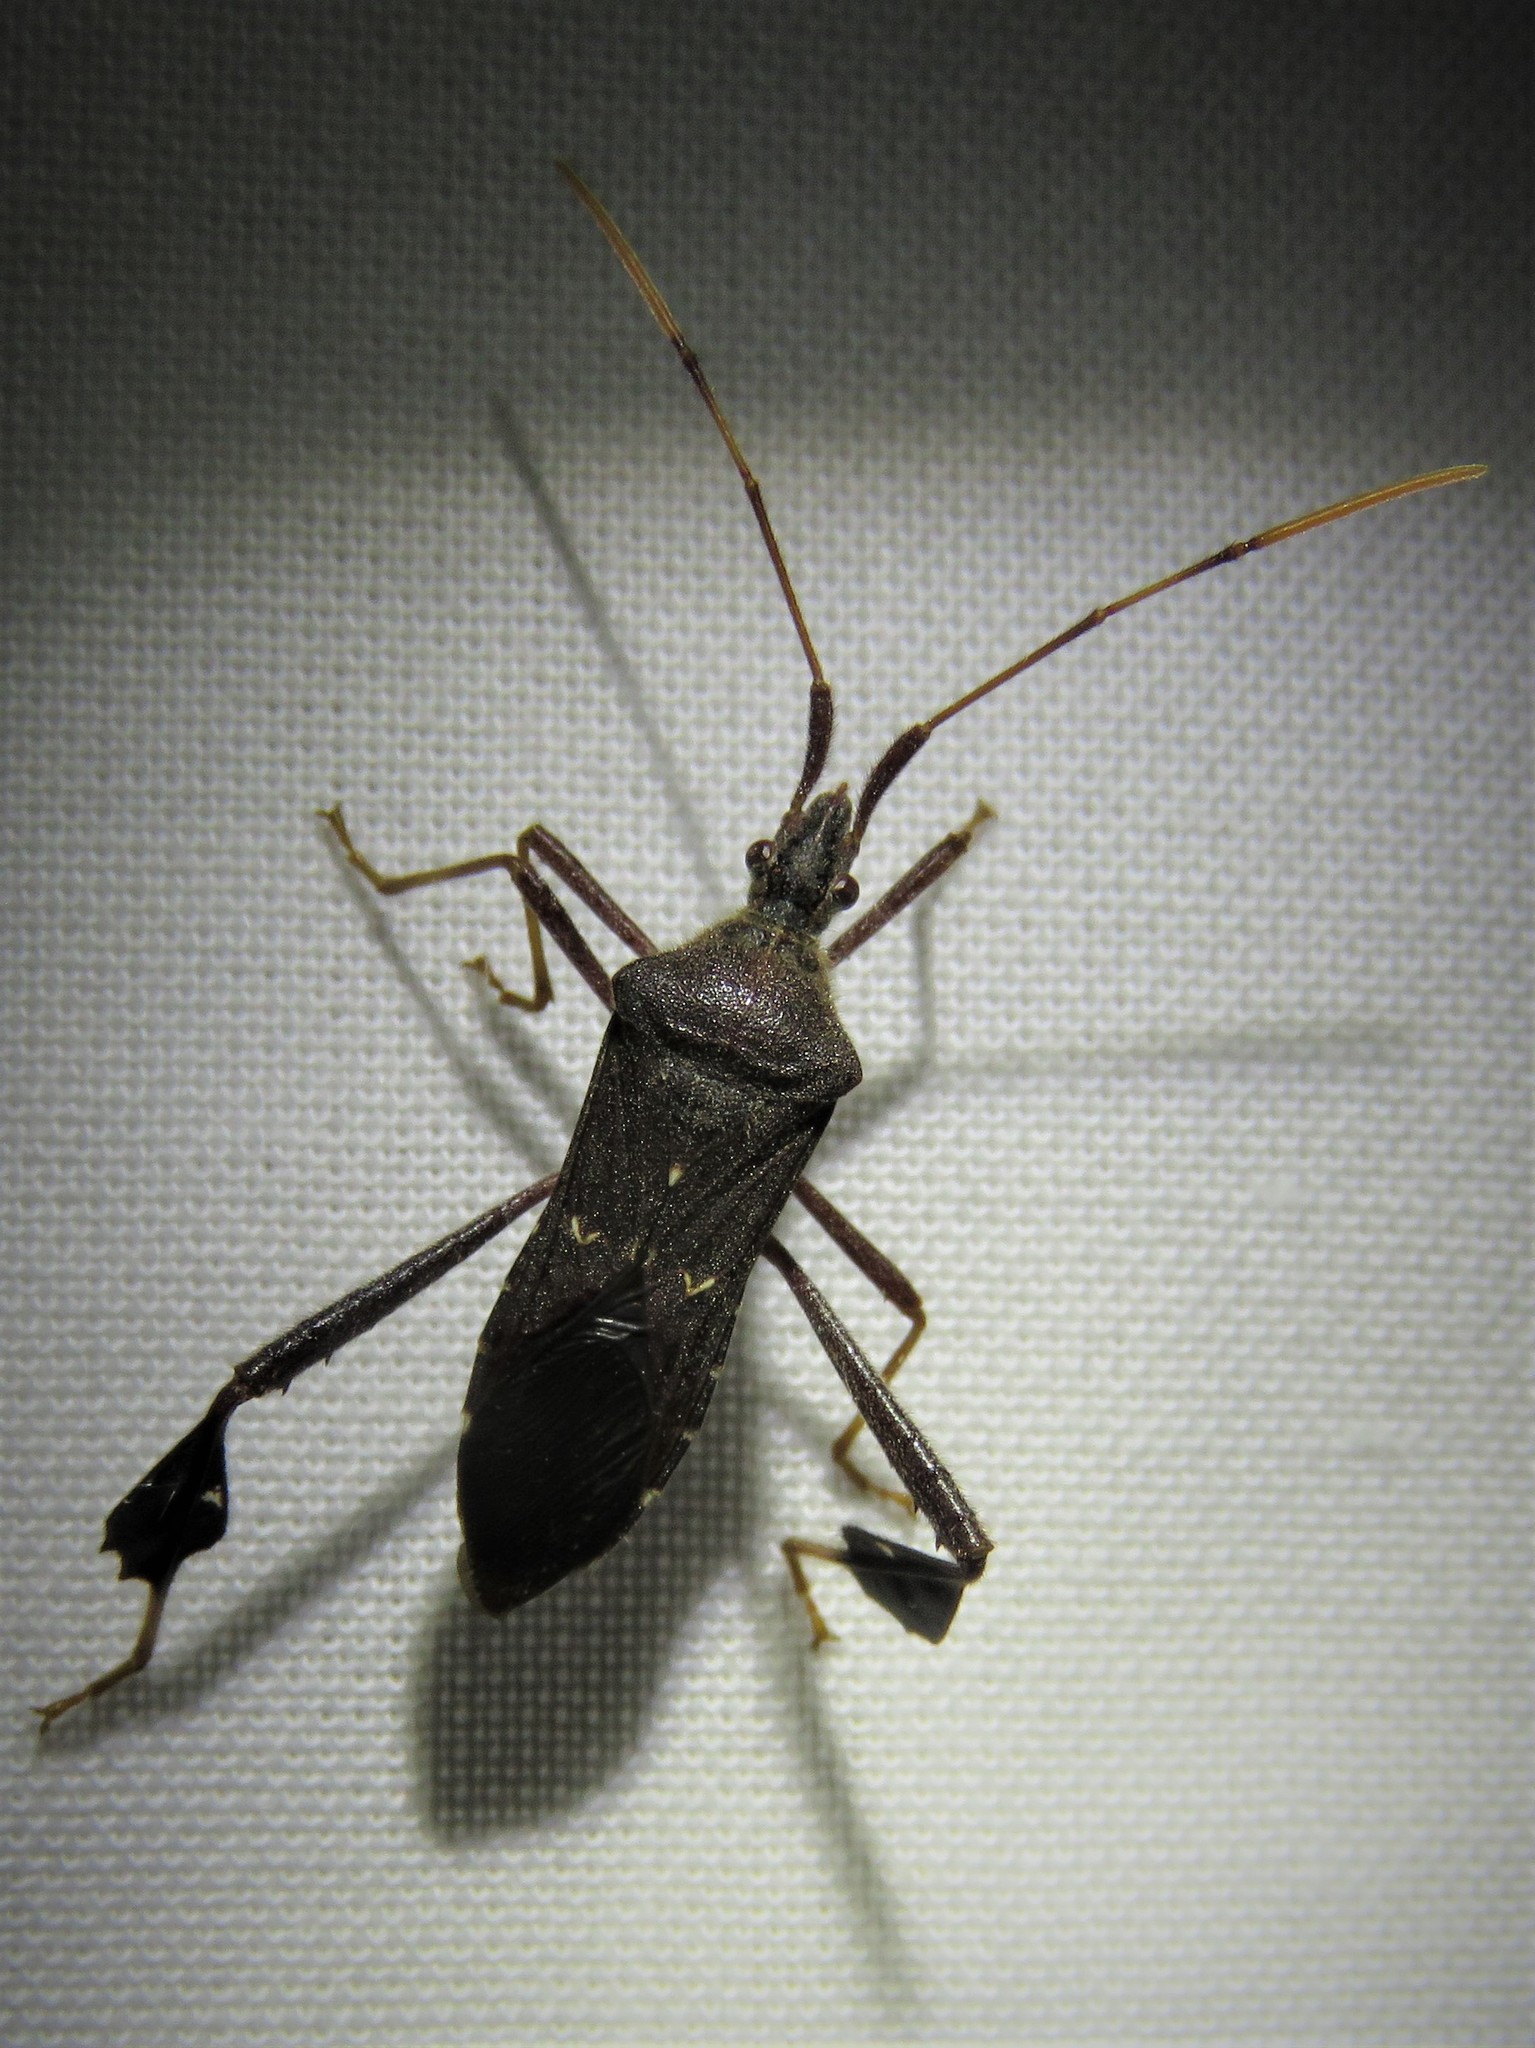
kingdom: Animalia
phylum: Arthropoda
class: Insecta
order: Hemiptera
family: Coreidae
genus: Leptoglossus
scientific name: Leptoglossus oppositus
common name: Northern leaf-footed bug
